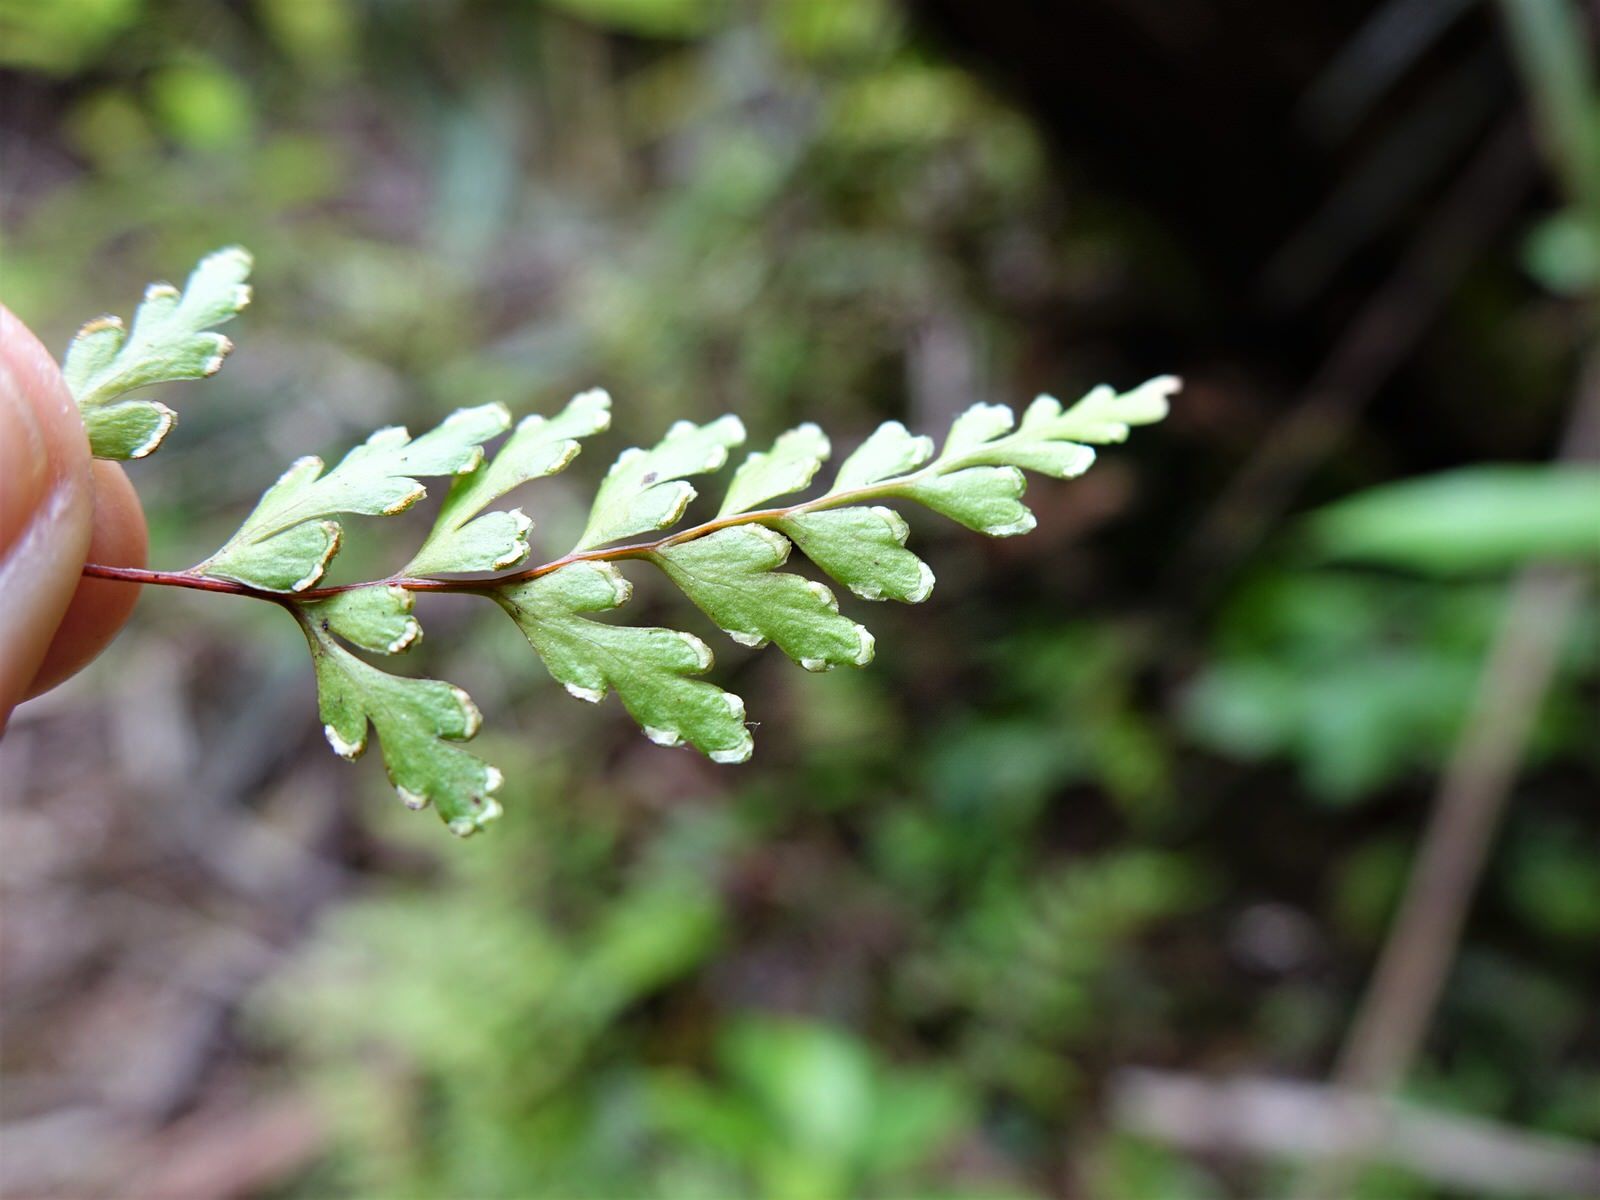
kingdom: Plantae
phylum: Tracheophyta
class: Polypodiopsida
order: Polypodiales
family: Lindsaeaceae
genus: Lindsaea
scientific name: Lindsaea trichomanoides
